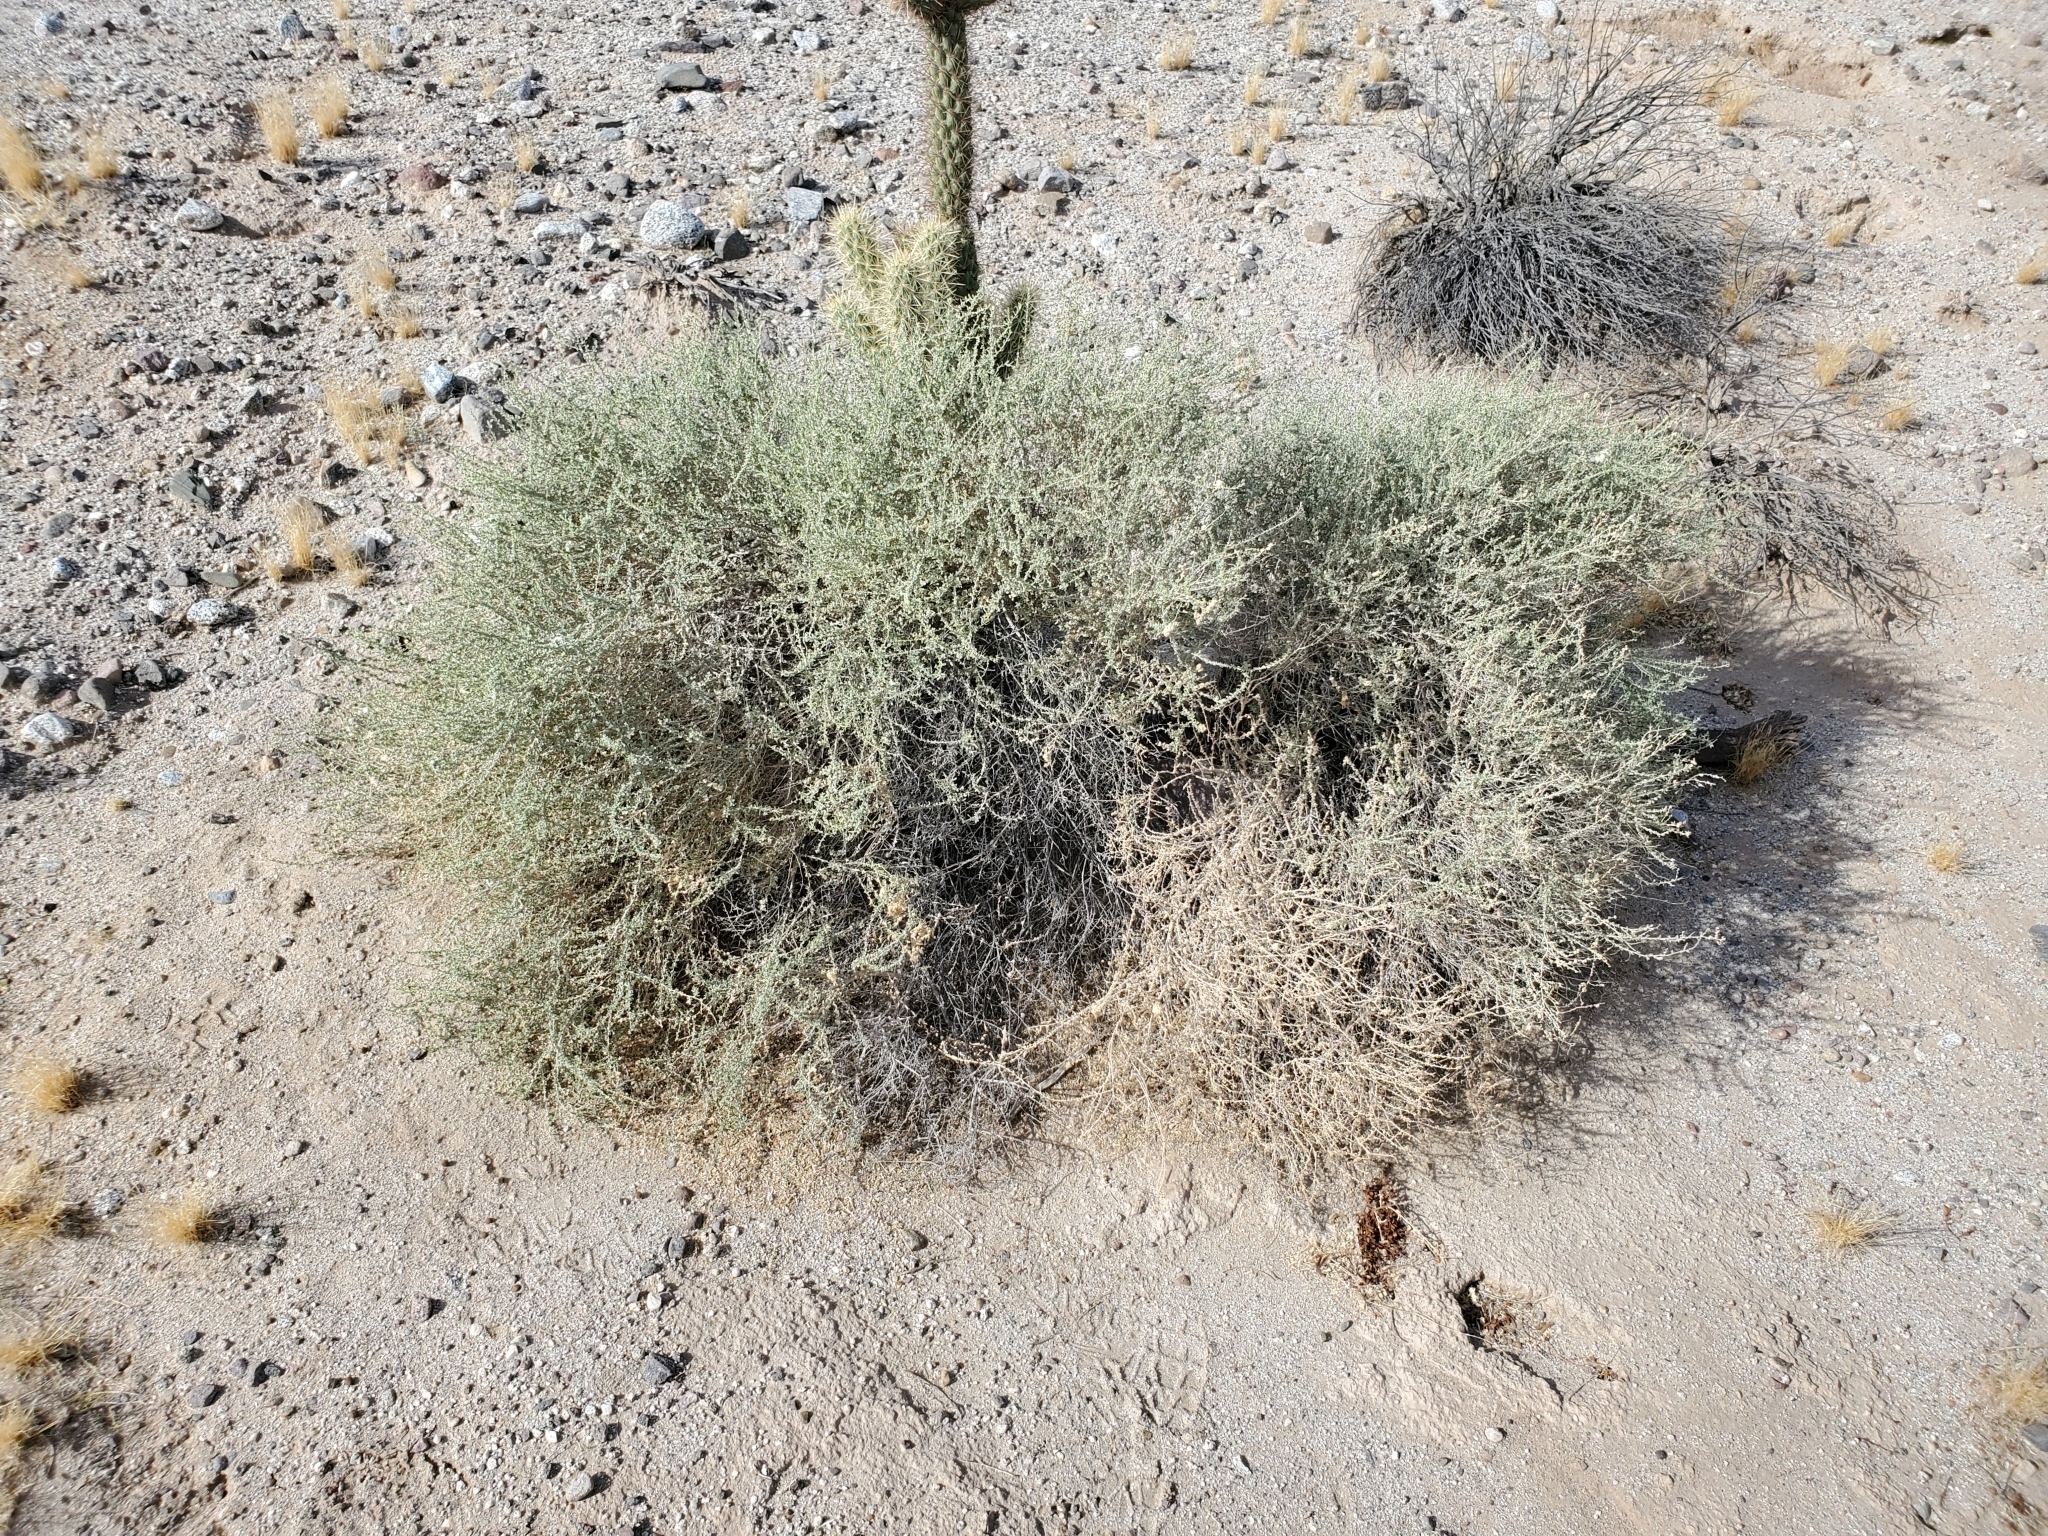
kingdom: Animalia
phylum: Arthropoda
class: Insecta
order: Diptera
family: Cecidomyiidae
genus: Asphondylia
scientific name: Asphondylia floccosa
